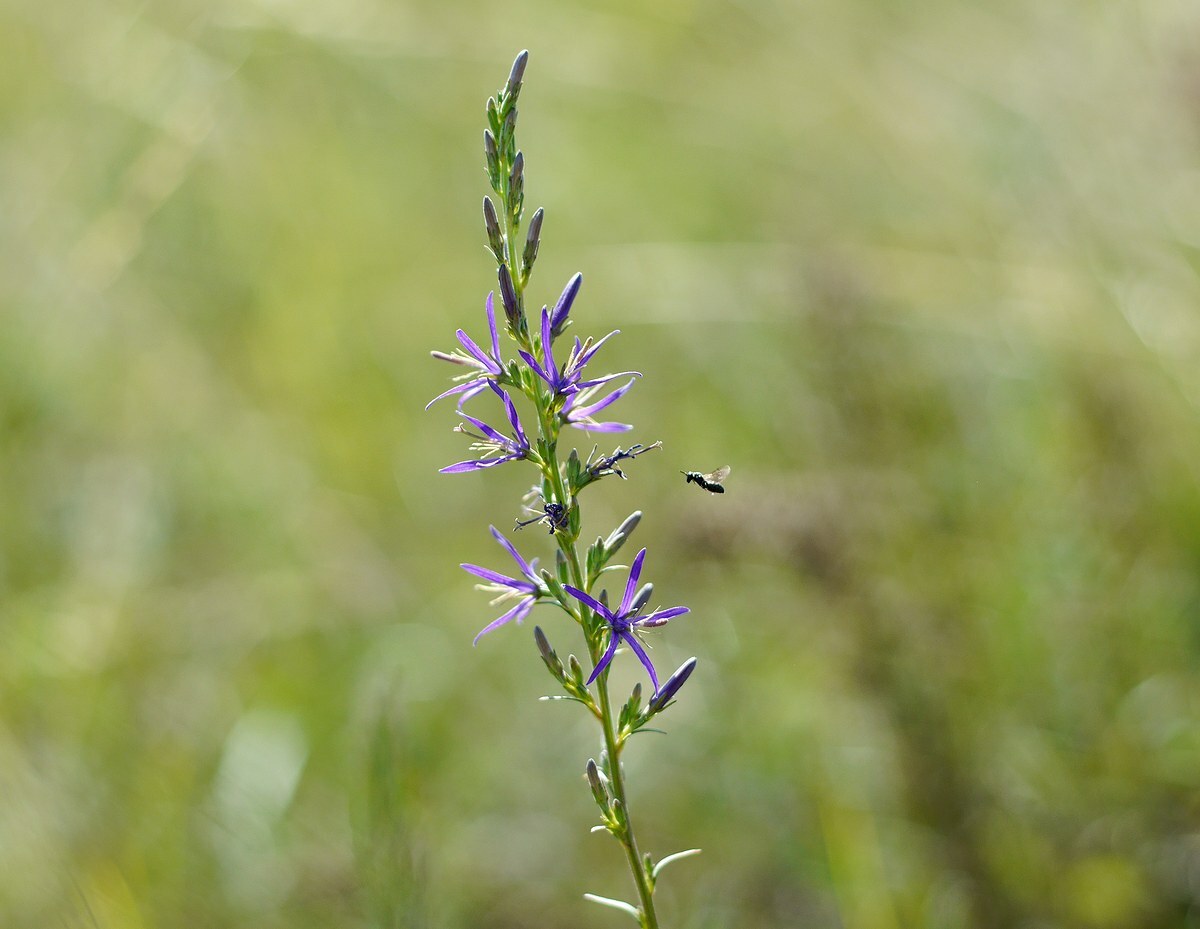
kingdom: Plantae
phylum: Tracheophyta
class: Magnoliopsida
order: Asterales
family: Campanulaceae
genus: Asyneuma
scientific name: Asyneuma canescens
